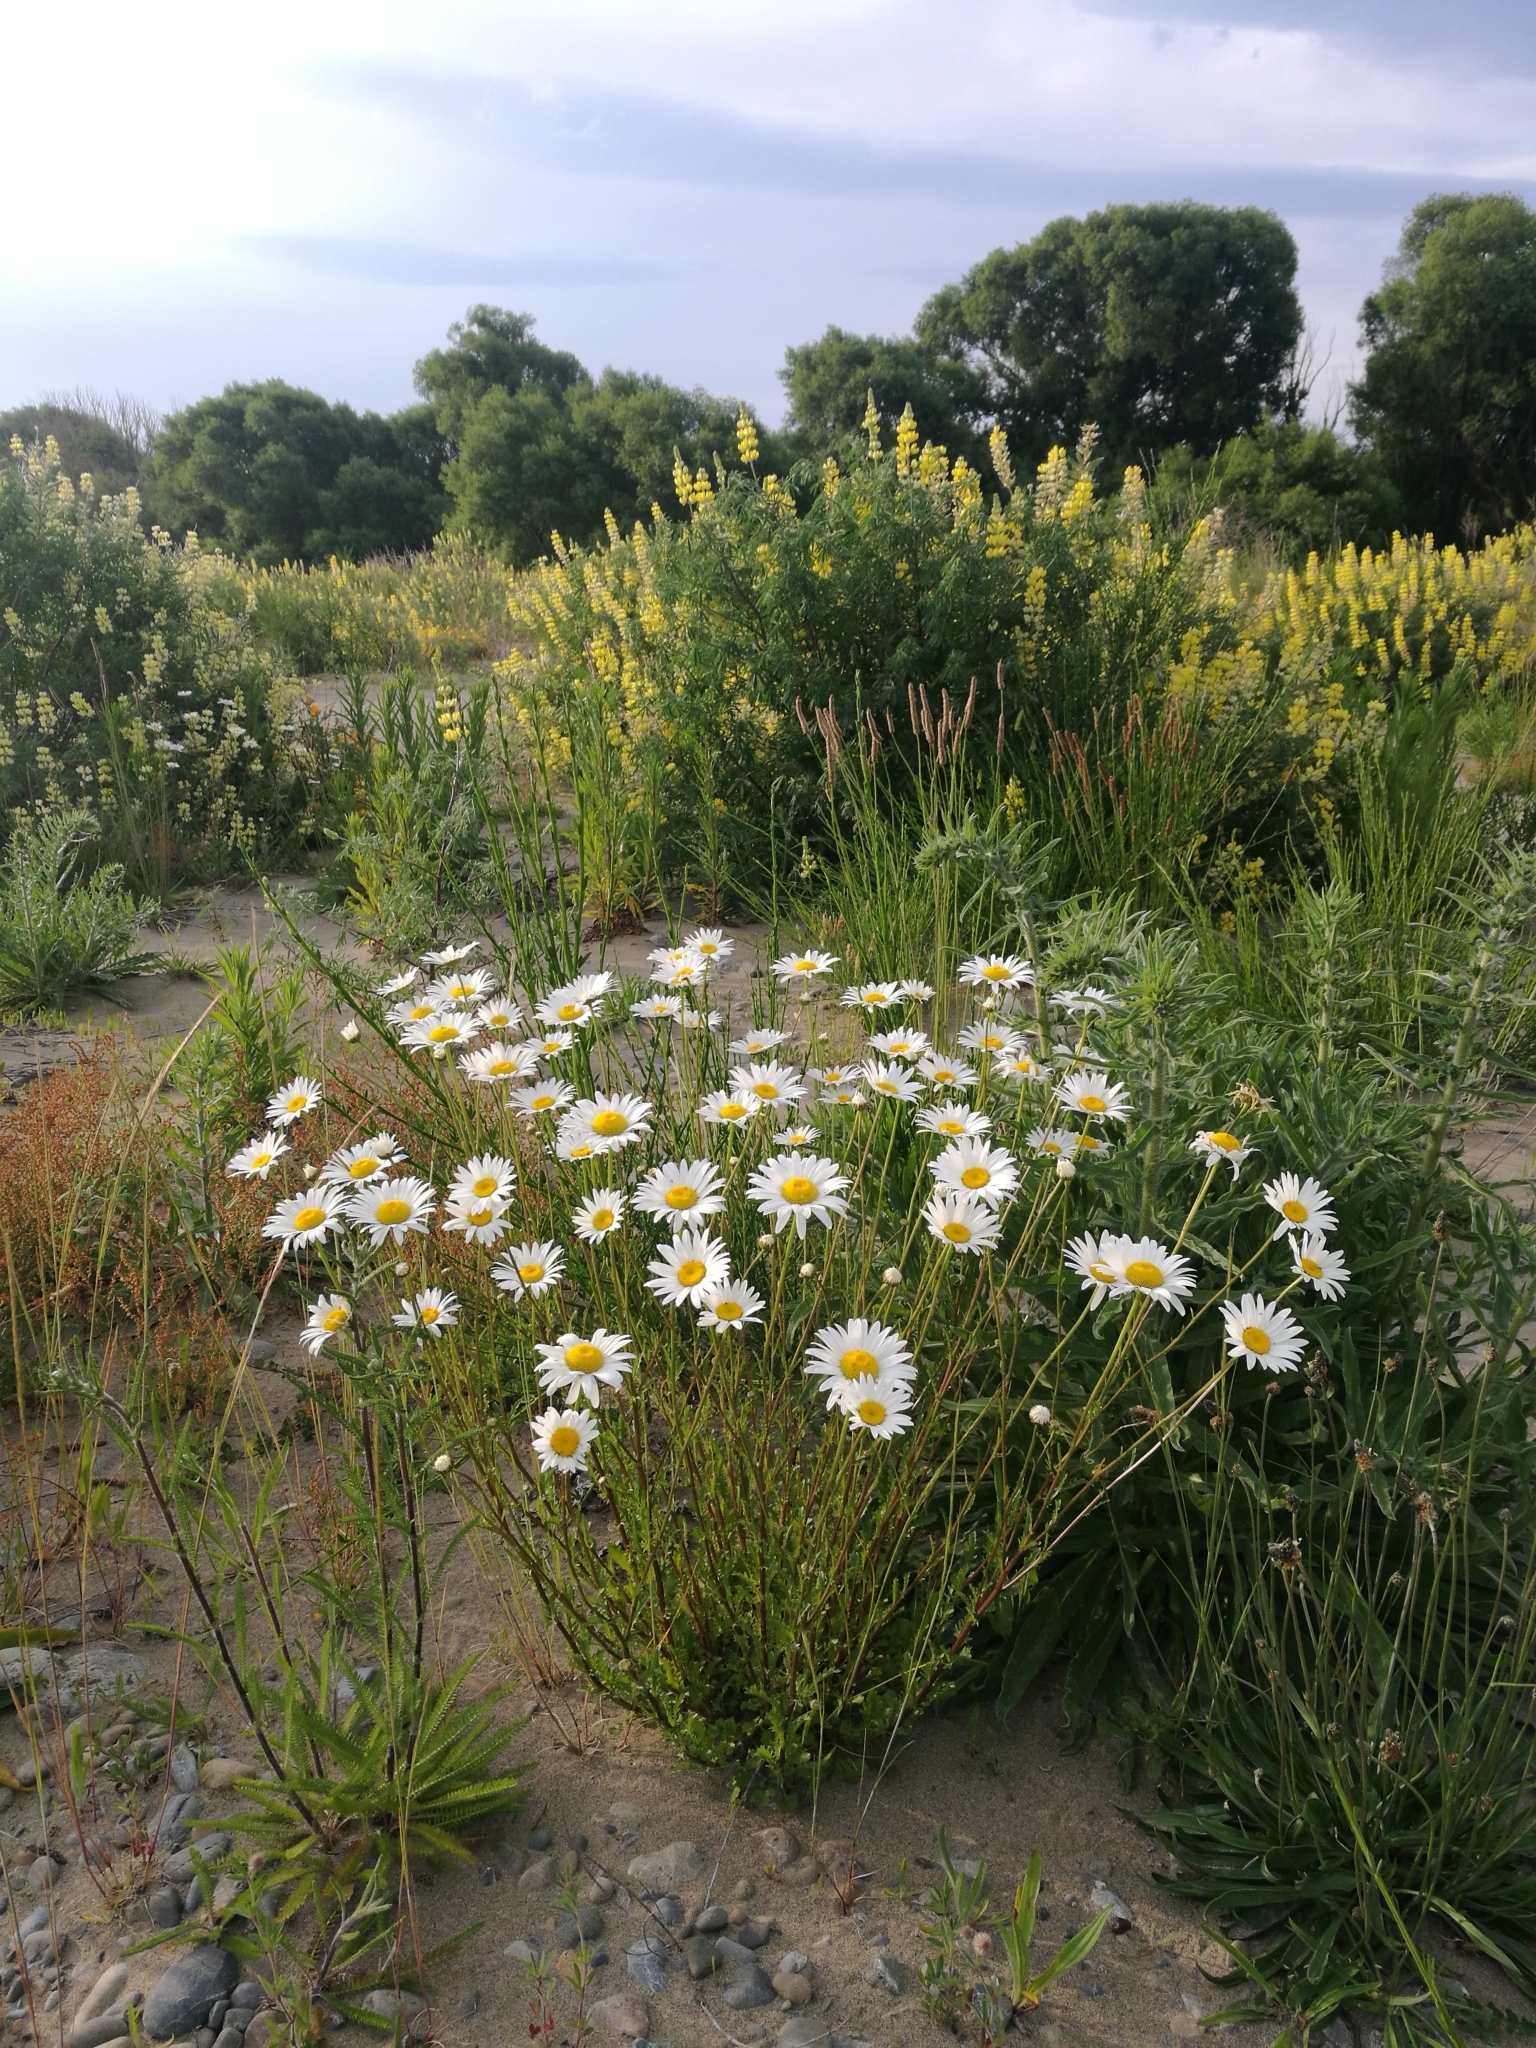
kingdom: Plantae
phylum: Tracheophyta
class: Magnoliopsida
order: Asterales
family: Asteraceae
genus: Leucanthemum
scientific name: Leucanthemum vulgare
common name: Oxeye daisy
